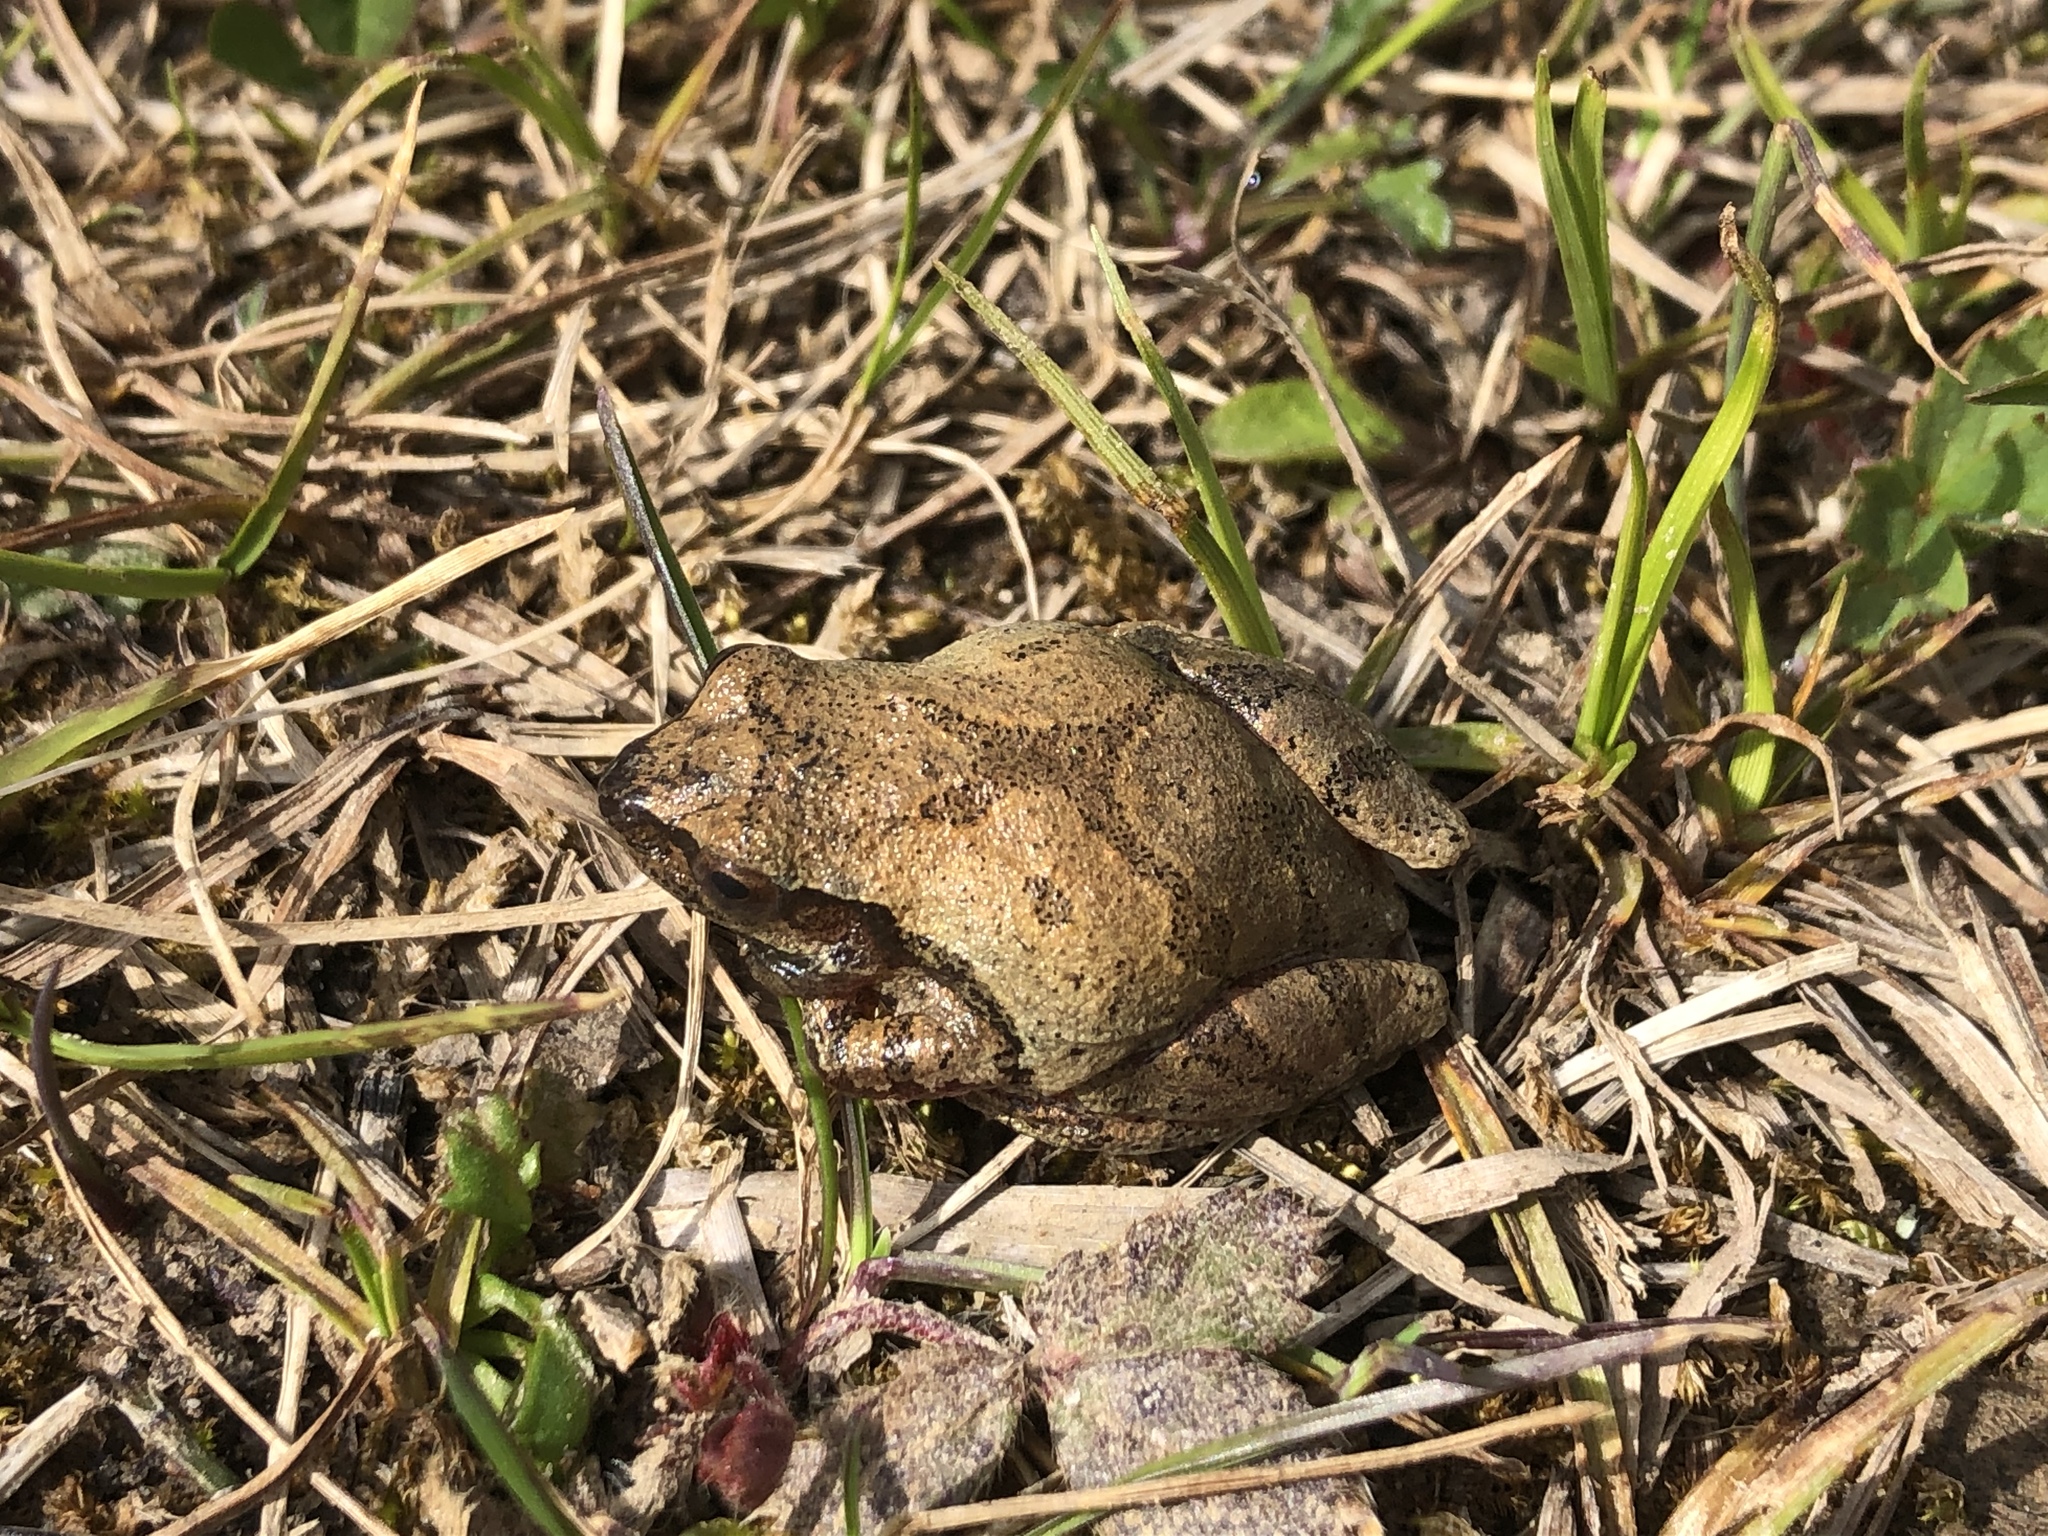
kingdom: Animalia
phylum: Chordata
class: Amphibia
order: Anura
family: Hylidae
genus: Pseudacris
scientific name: Pseudacris crucifer
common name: Spring peeper
